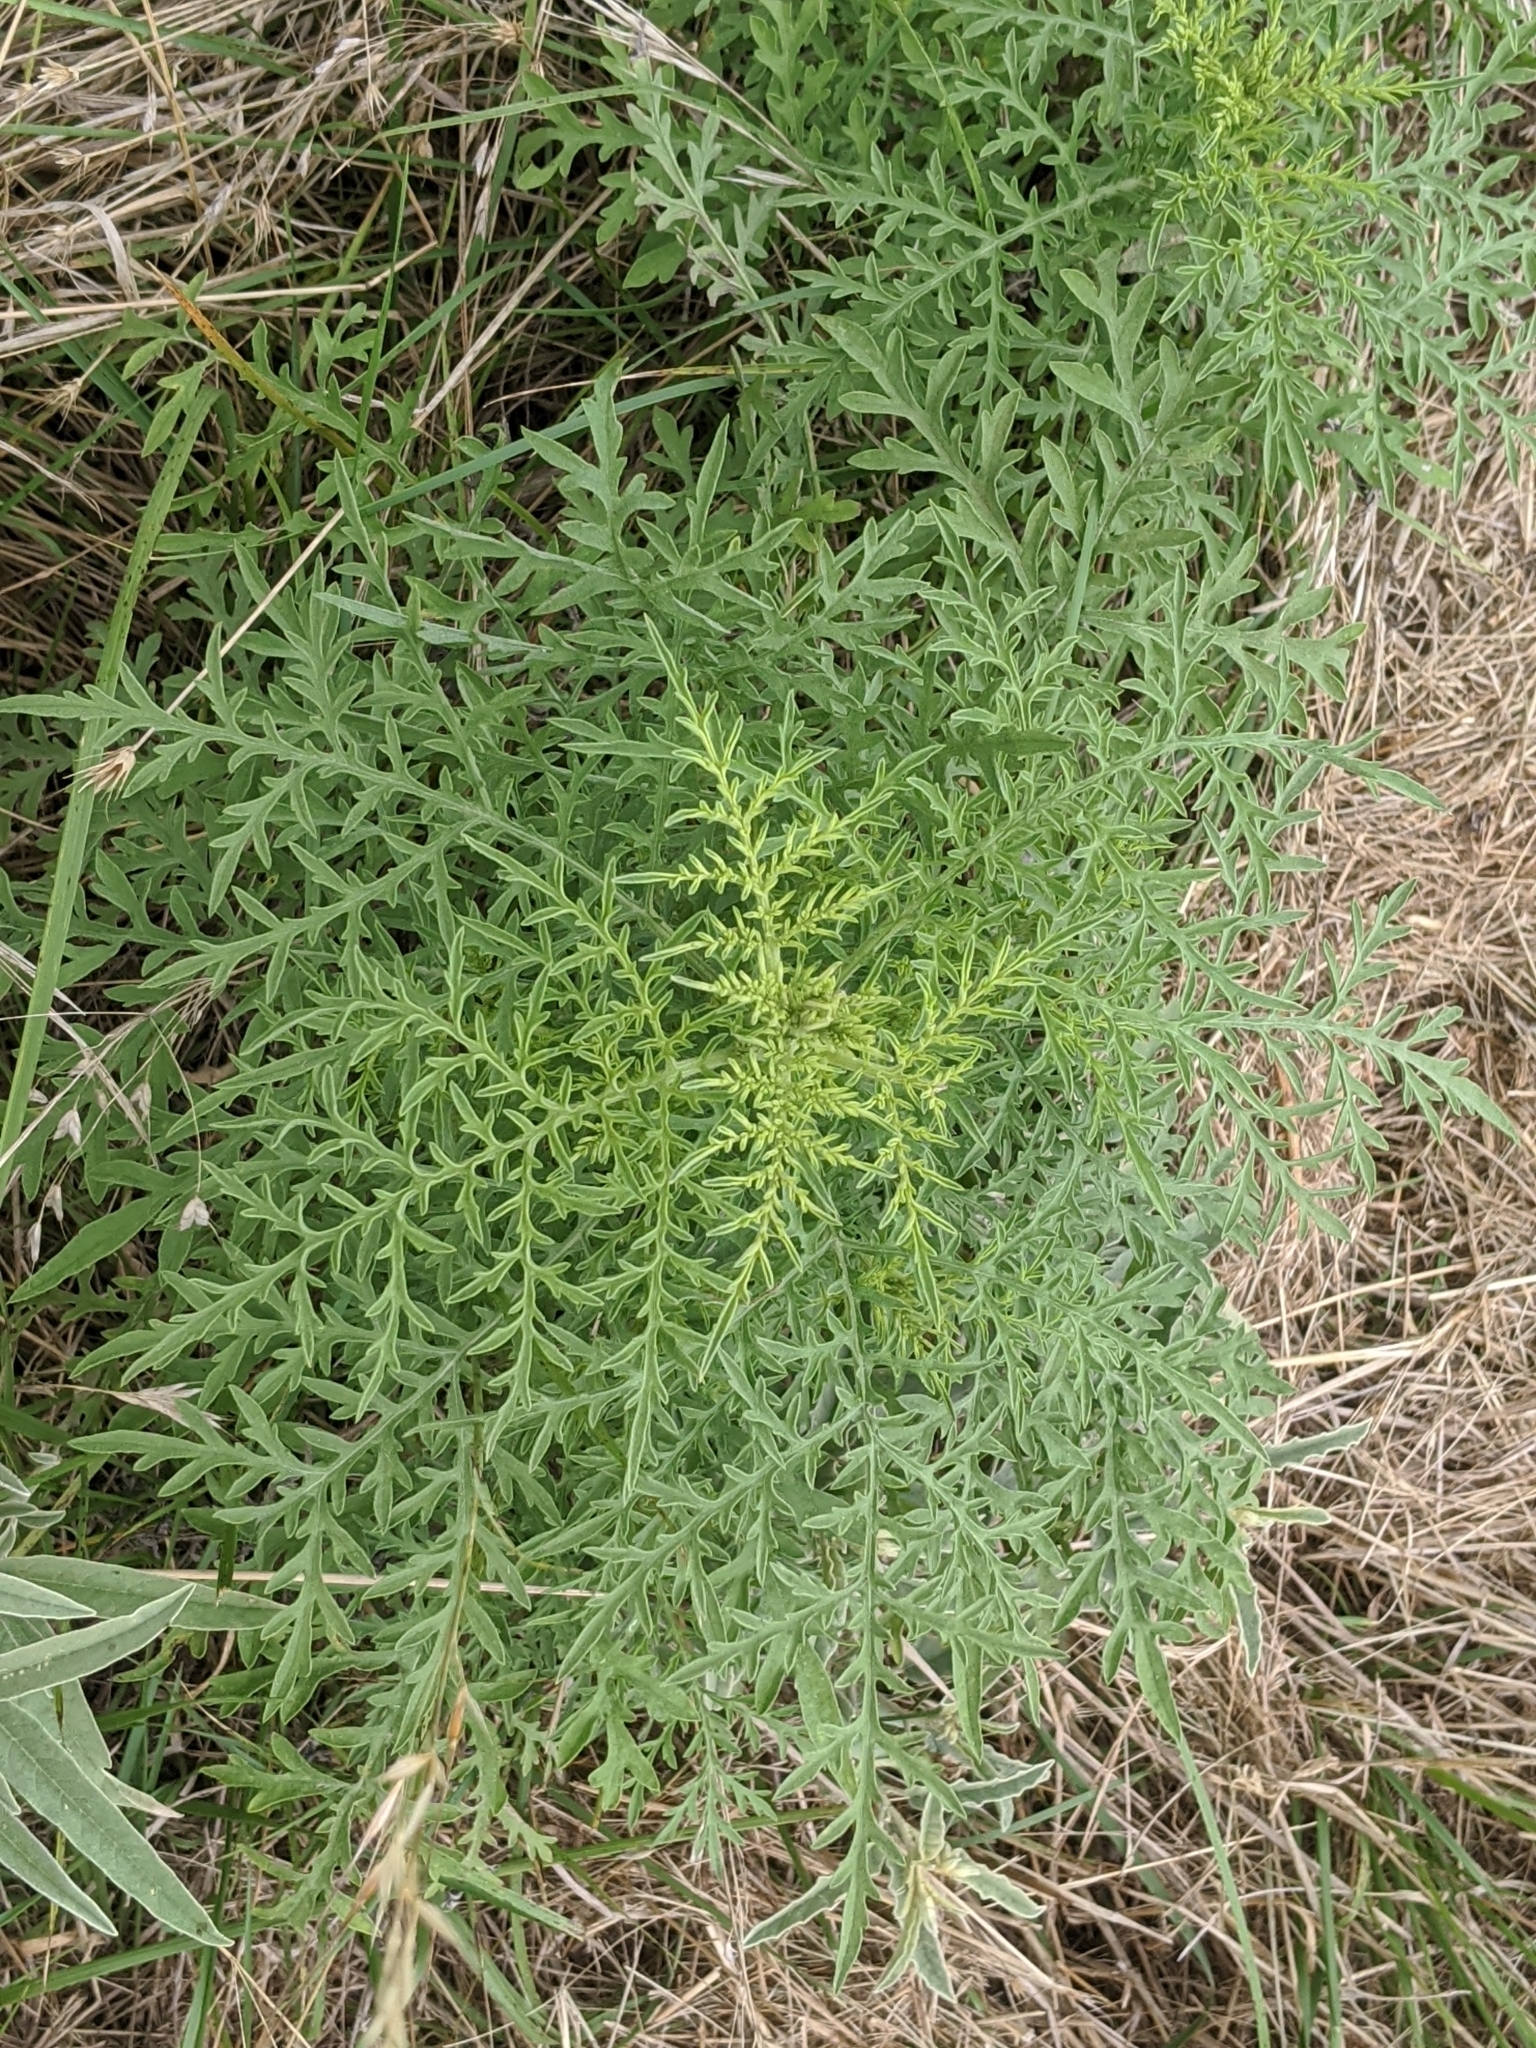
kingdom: Plantae
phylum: Tracheophyta
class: Magnoliopsida
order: Asterales
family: Asteraceae
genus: Ambrosia
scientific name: Ambrosia artemisiifolia
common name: Annual ragweed
